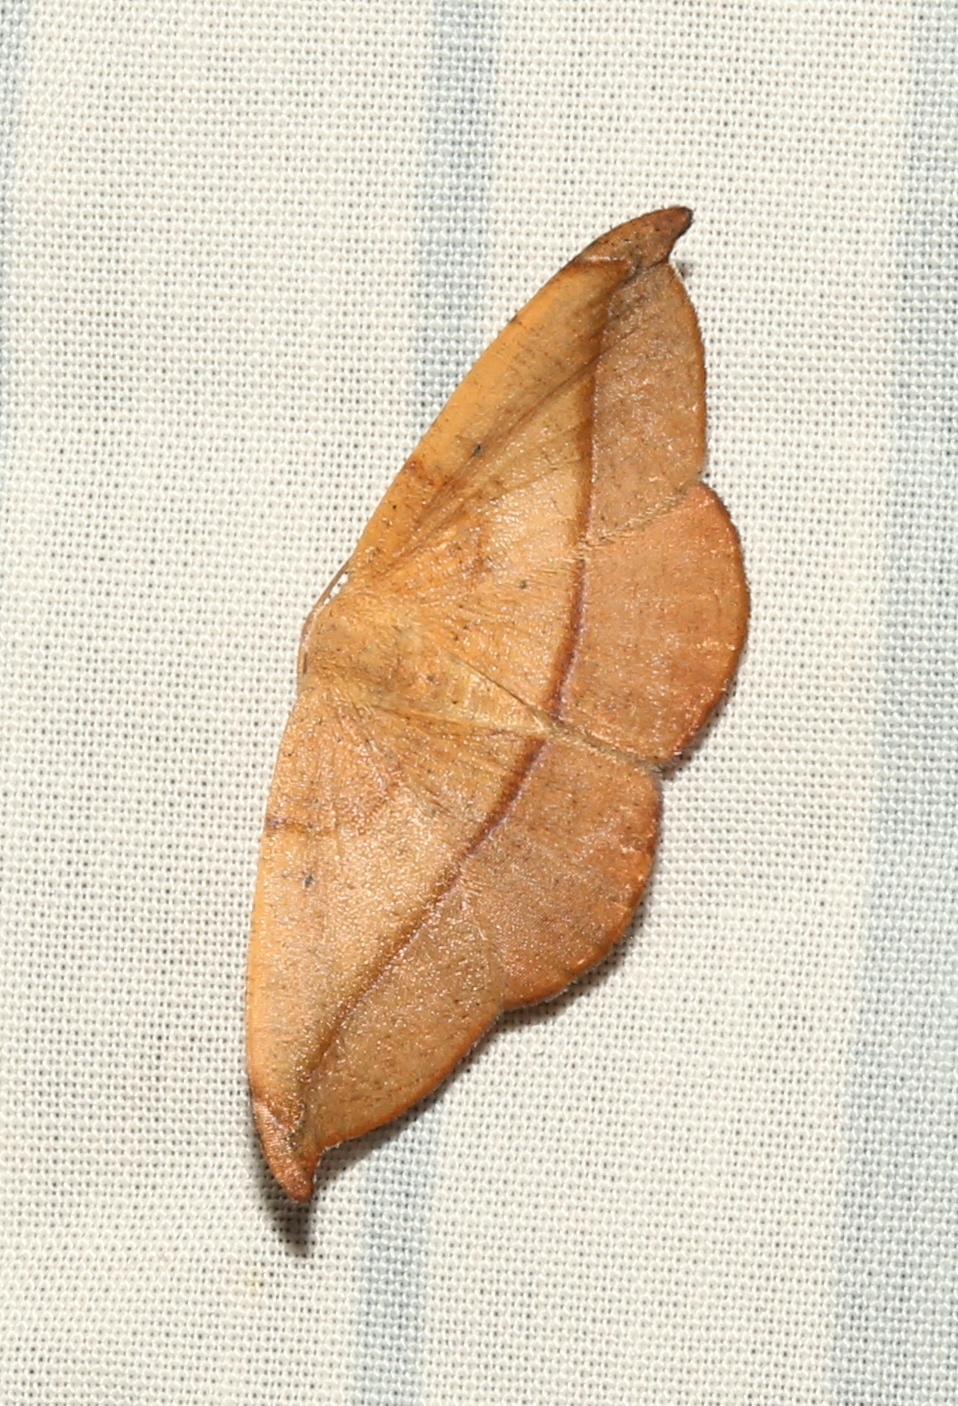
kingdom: Animalia
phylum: Arthropoda
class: Insecta
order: Lepidoptera
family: Geometridae
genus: Patalene
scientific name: Patalene olyzonaria
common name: Juniper geometer moth
